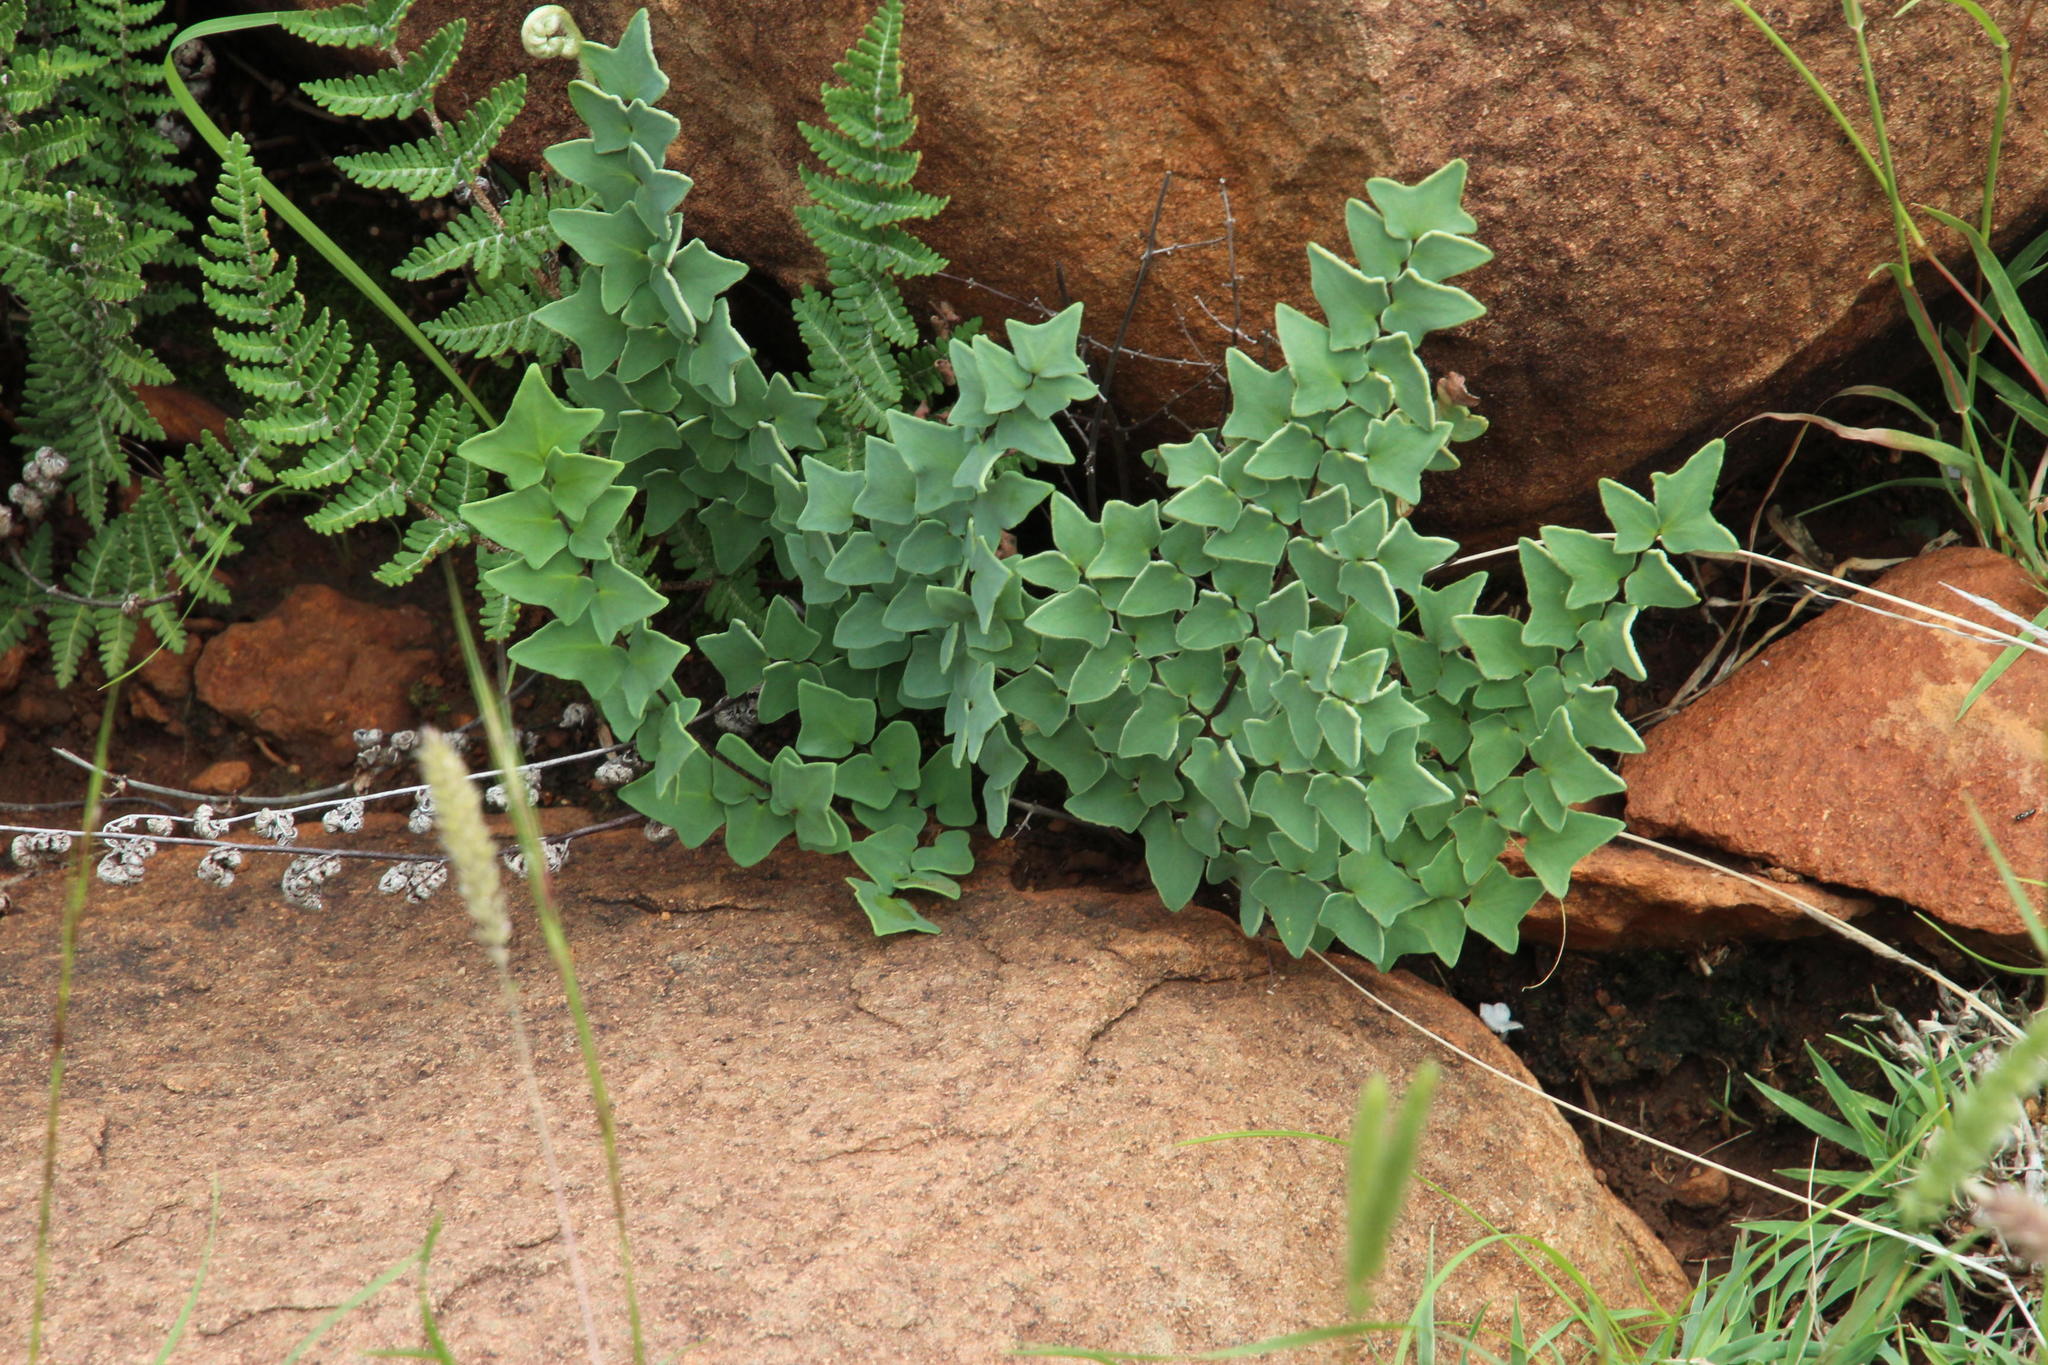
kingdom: Plantae
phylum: Tracheophyta
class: Polypodiopsida
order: Polypodiales
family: Pteridaceae
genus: Pellaea
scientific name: Pellaea calomelanos
